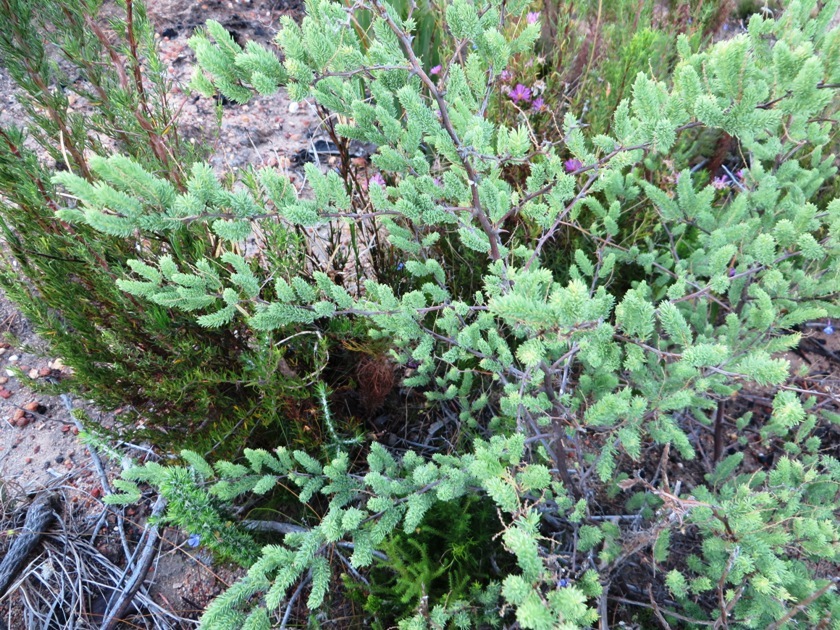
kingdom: Plantae
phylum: Tracheophyta
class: Liliopsida
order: Asparagales
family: Asparagaceae
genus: Asparagus
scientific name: Asparagus rubicundus
